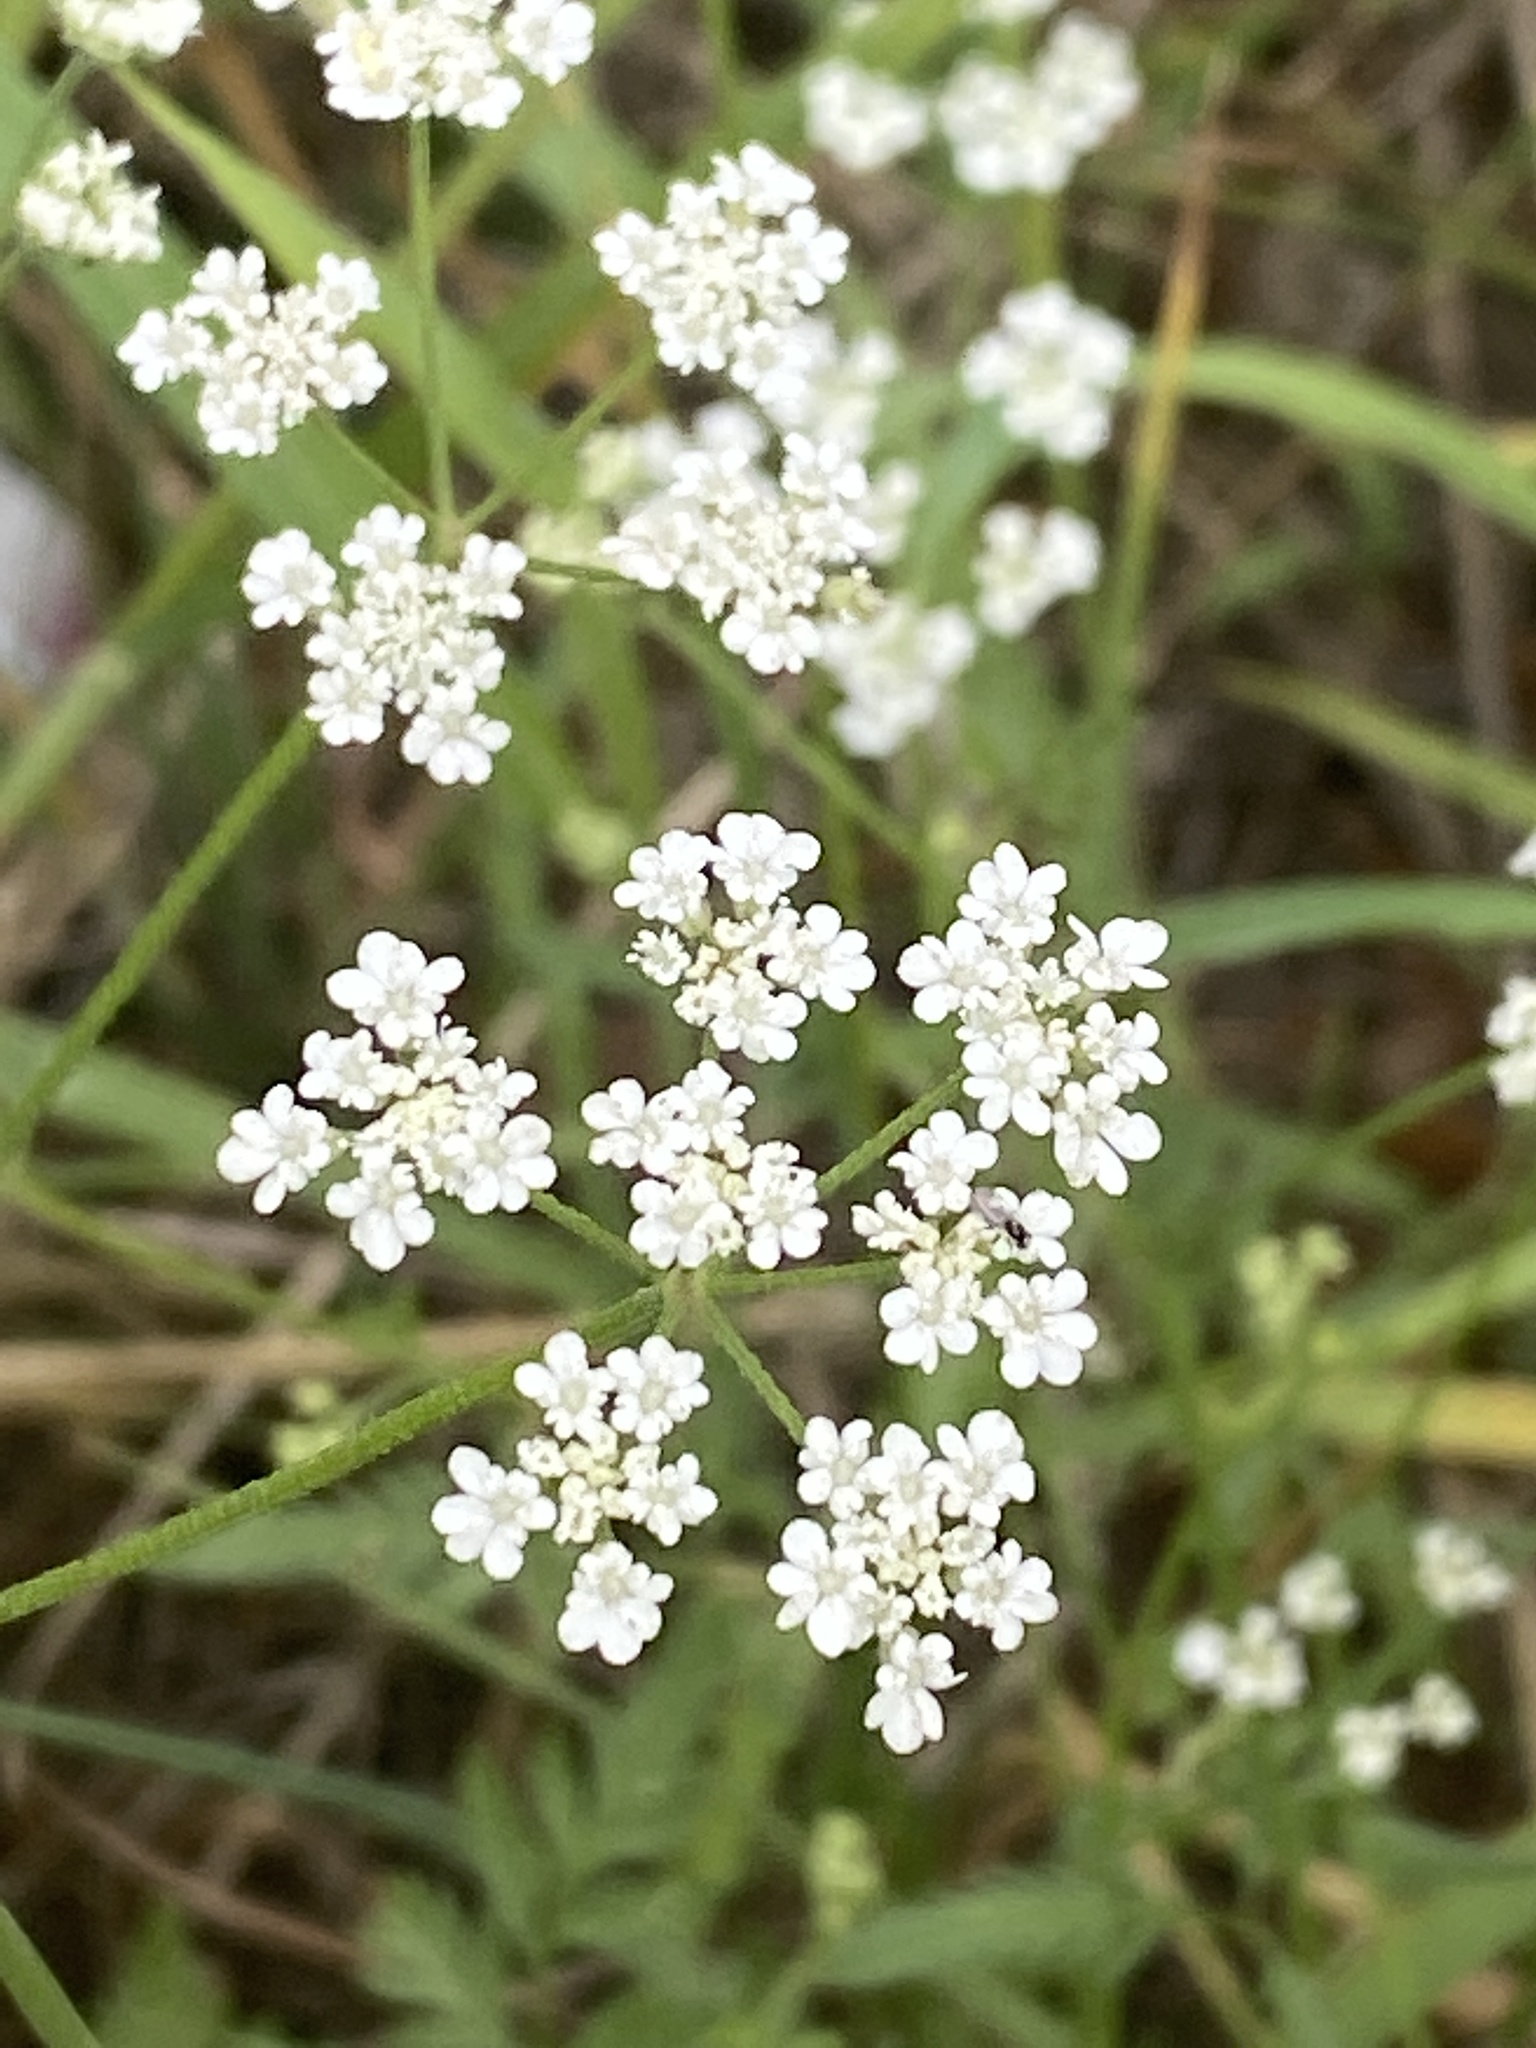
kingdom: Plantae
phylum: Tracheophyta
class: Magnoliopsida
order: Apiales
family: Apiaceae
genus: Torilis
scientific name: Torilis arvensis
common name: Spreading hedge-parsley
